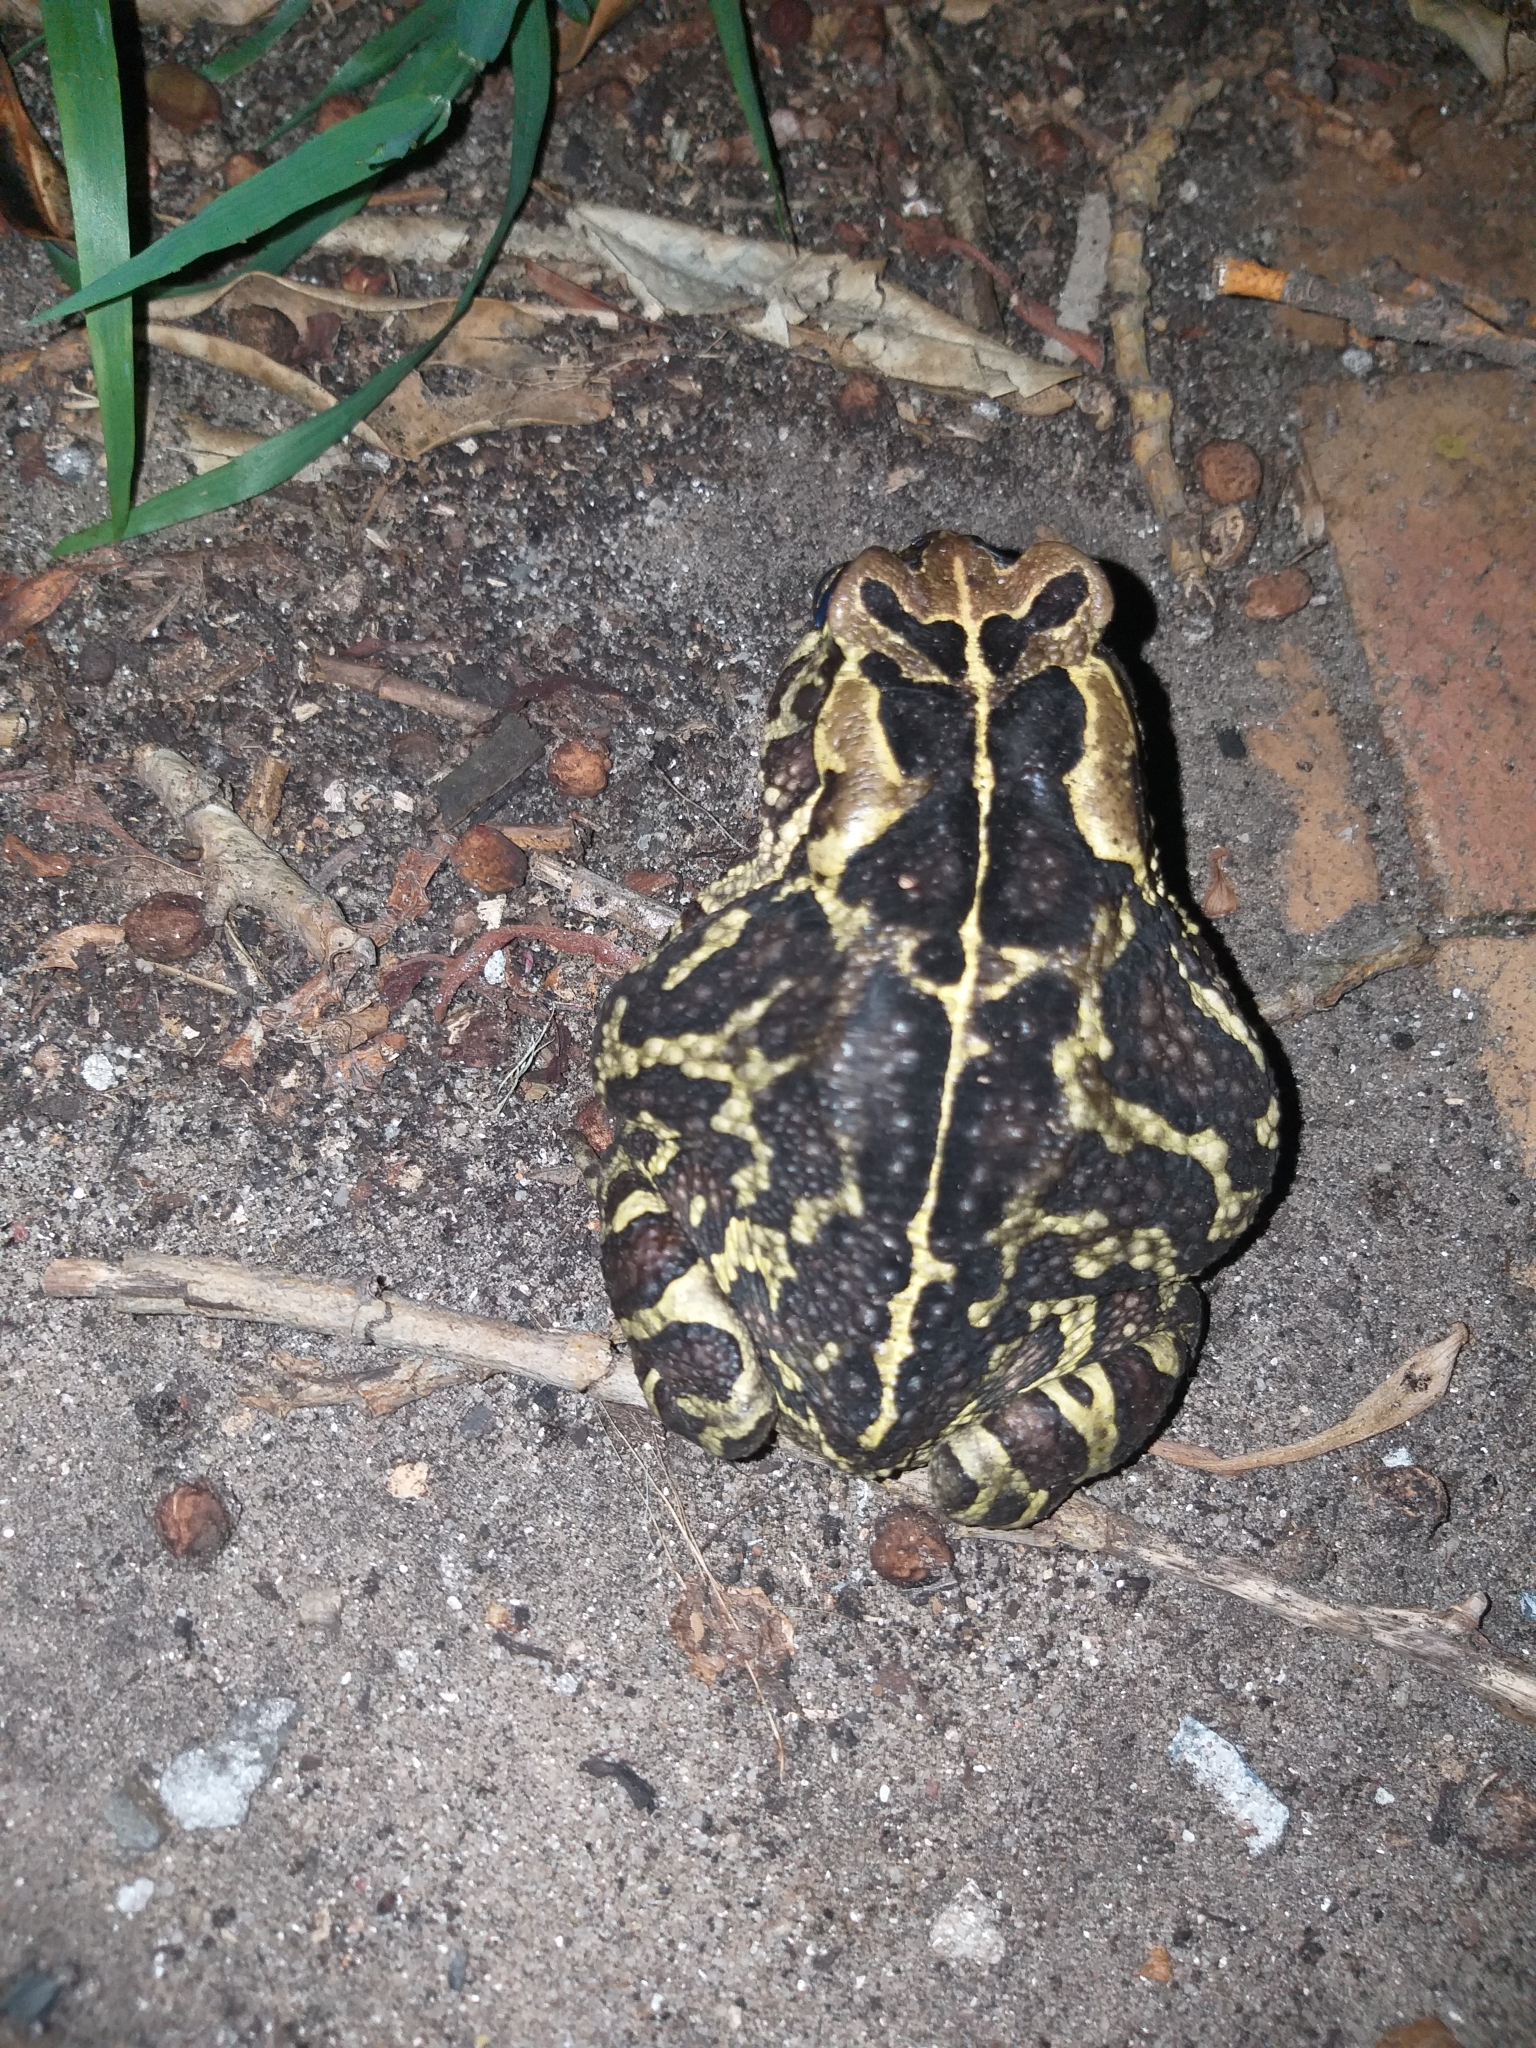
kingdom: Animalia
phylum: Chordata
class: Amphibia
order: Anura
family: Bufonidae
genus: Sclerophrys
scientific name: Sclerophrys pantherina
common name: Panther toad
